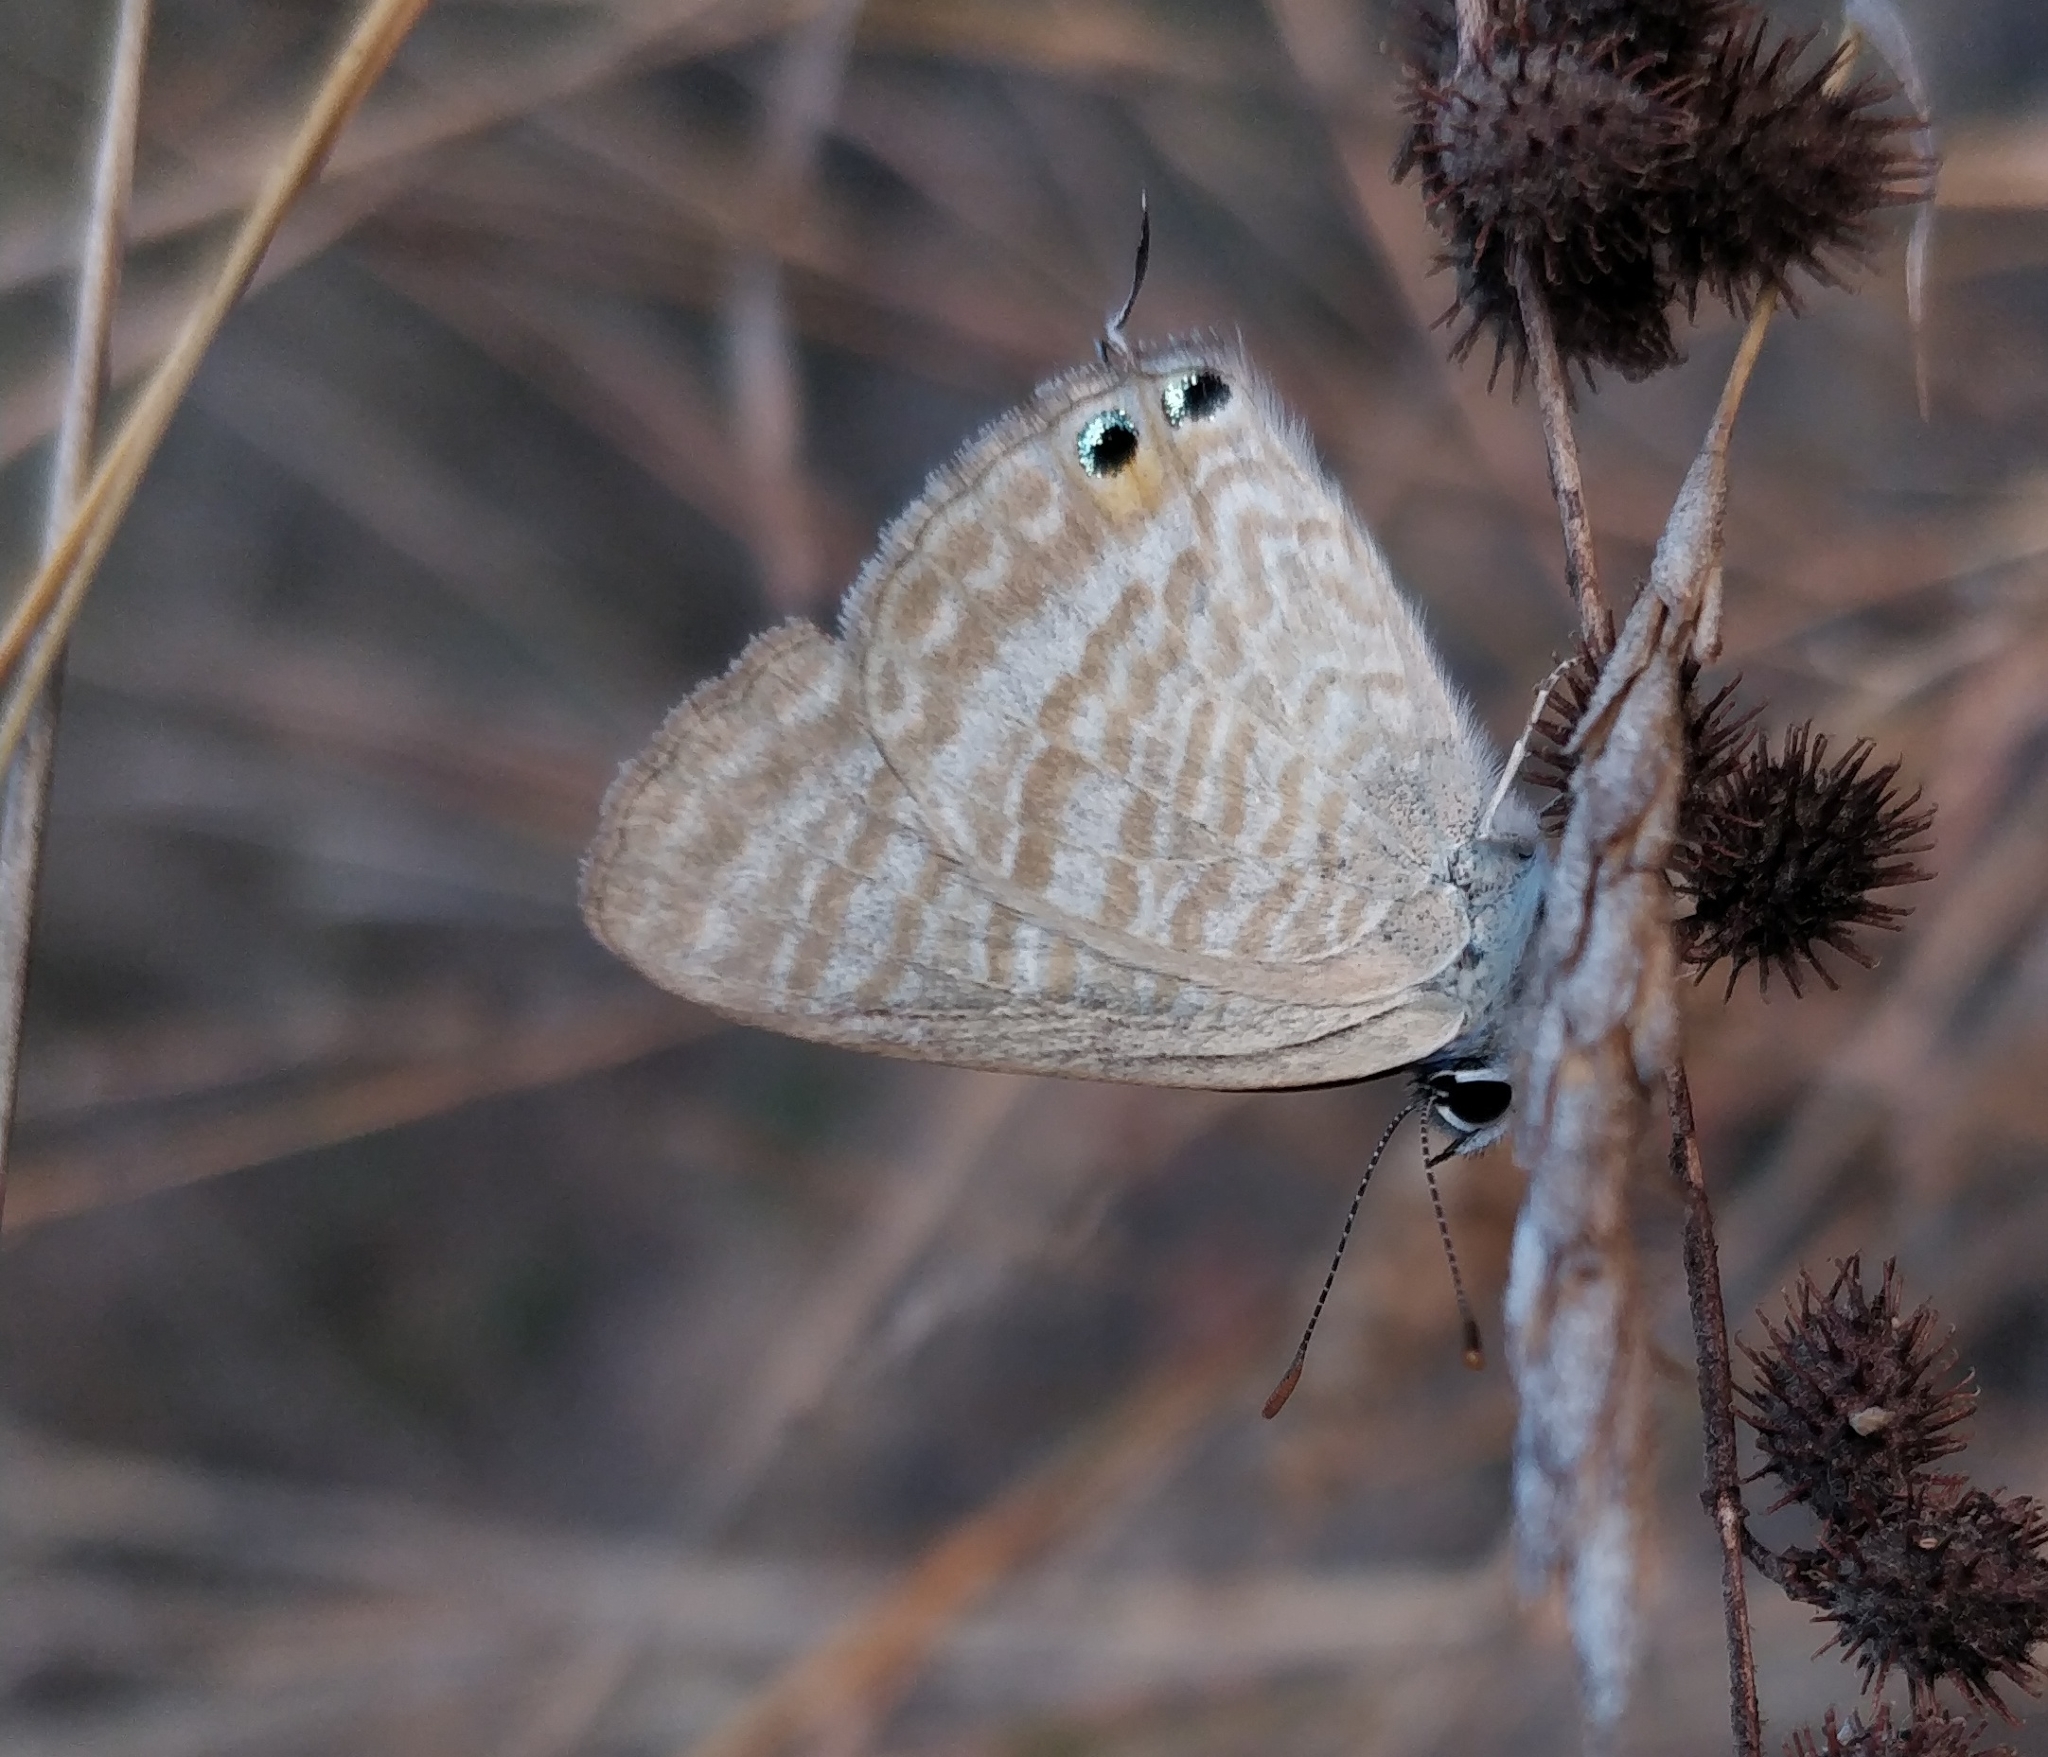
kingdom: Animalia
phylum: Arthropoda
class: Insecta
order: Lepidoptera
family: Lycaenidae
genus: Lampides
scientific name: Lampides boeticus
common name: Long-tailed blue
